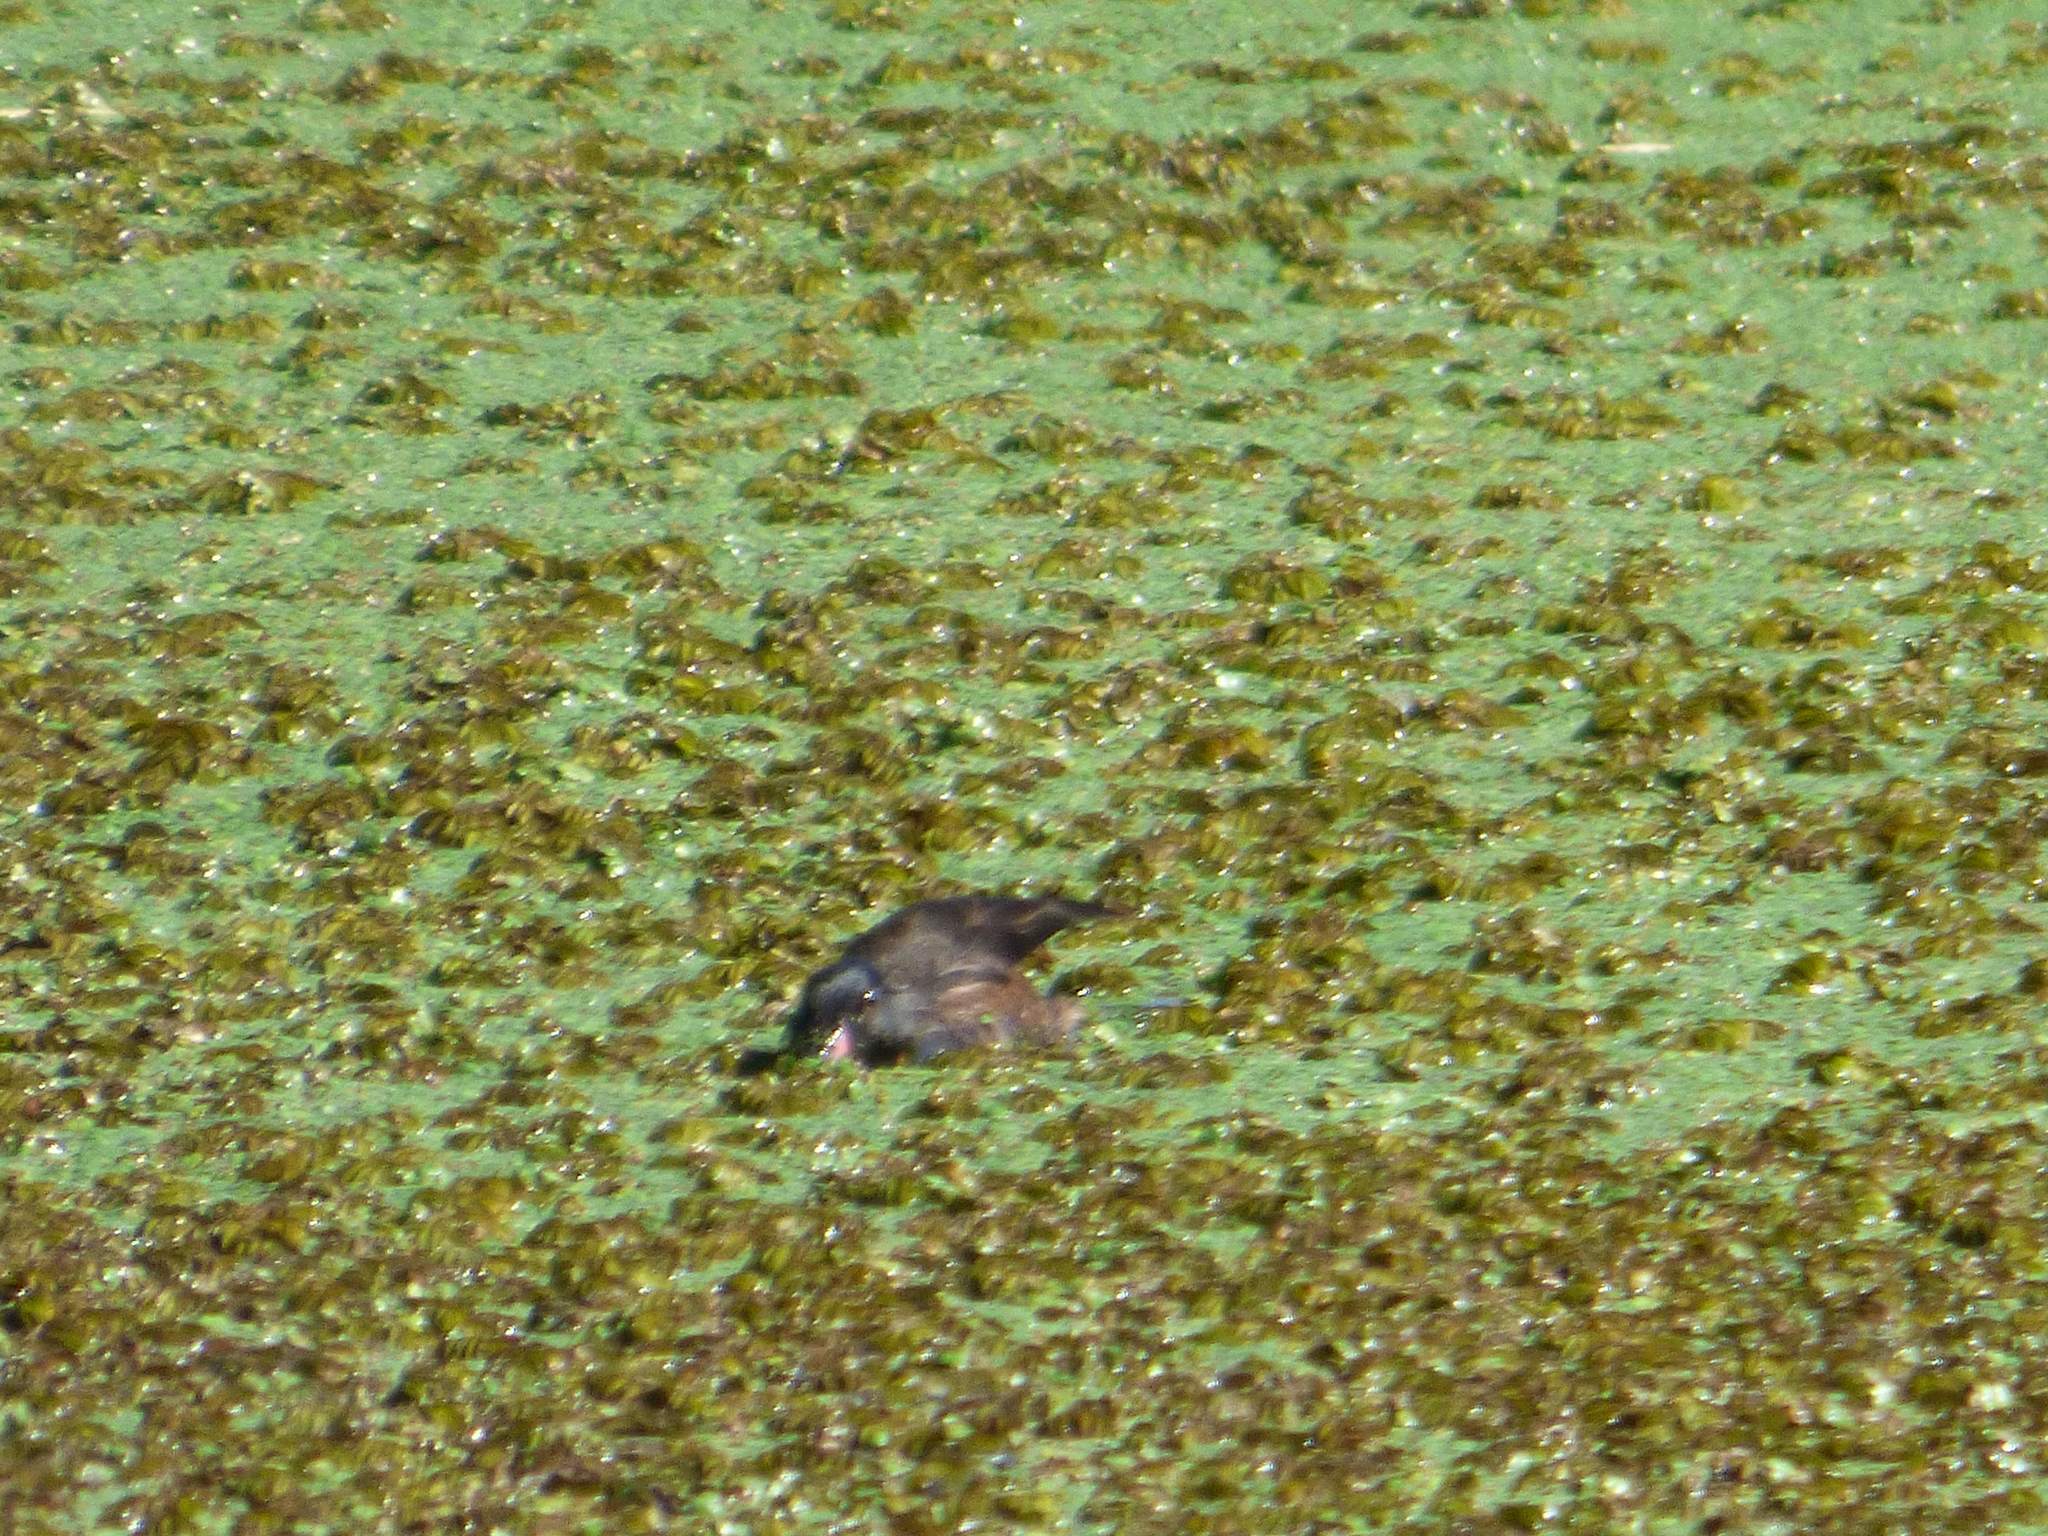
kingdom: Animalia
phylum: Chordata
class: Aves
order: Anseriformes
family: Anatidae
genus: Heteronetta
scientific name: Heteronetta atricapilla
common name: Black-headed duck
